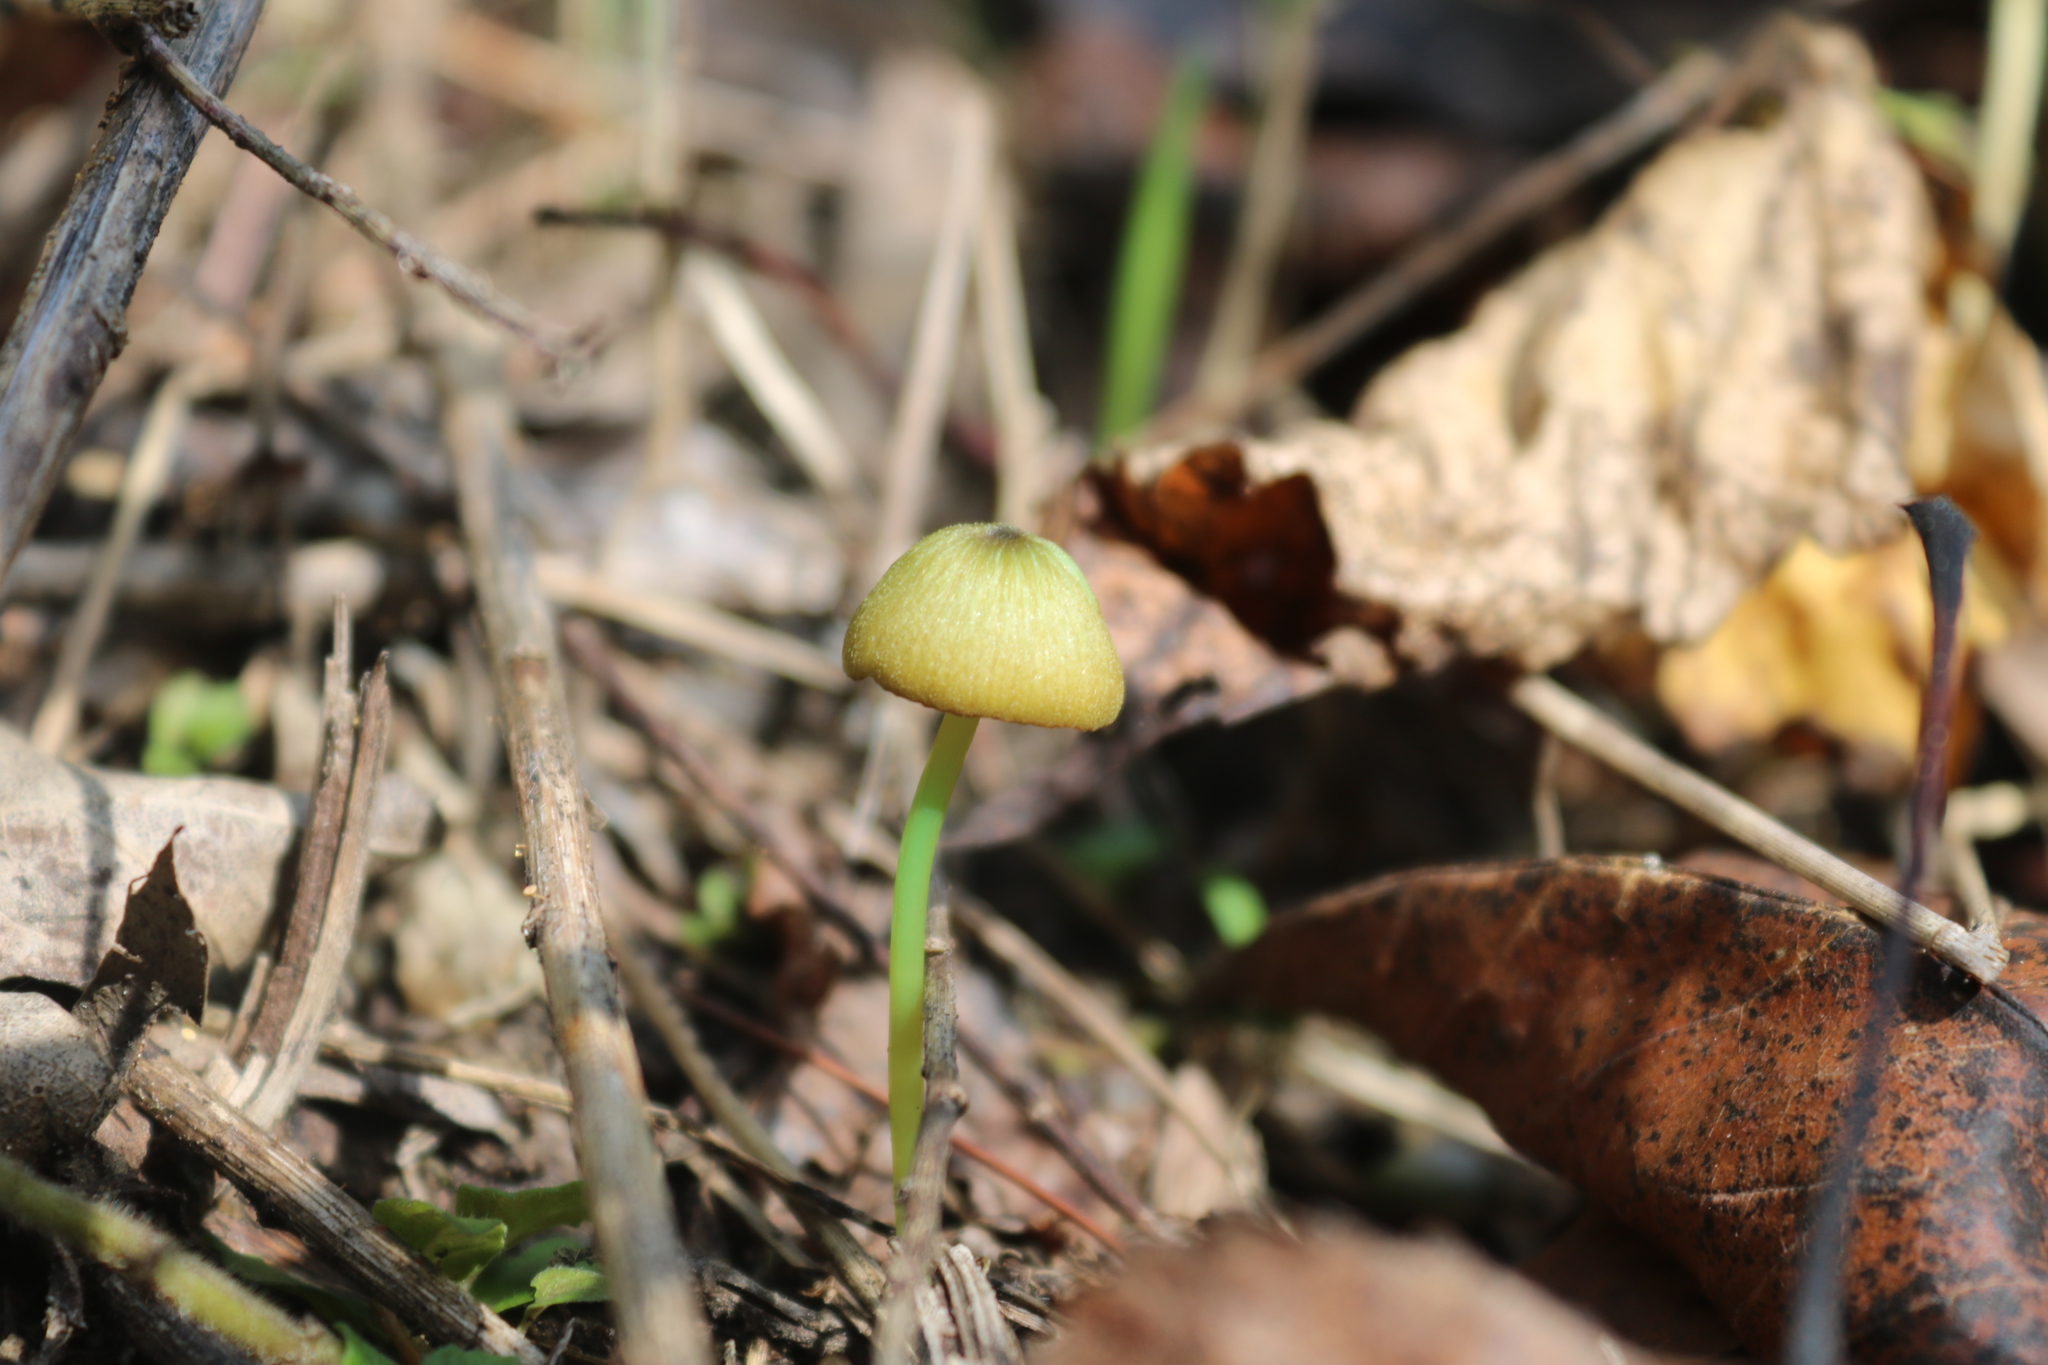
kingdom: Fungi
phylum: Basidiomycota
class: Agaricomycetes
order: Agaricales
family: Entolomataceae
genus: Entoloma
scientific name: Entoloma incanum
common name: Mousepee pinkgill
